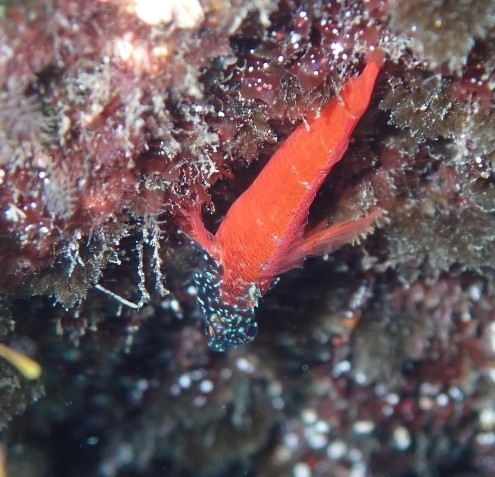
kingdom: Animalia
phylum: Chordata
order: Perciformes
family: Tripterygiidae
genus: Tripterygion
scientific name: Tripterygion melanurum
